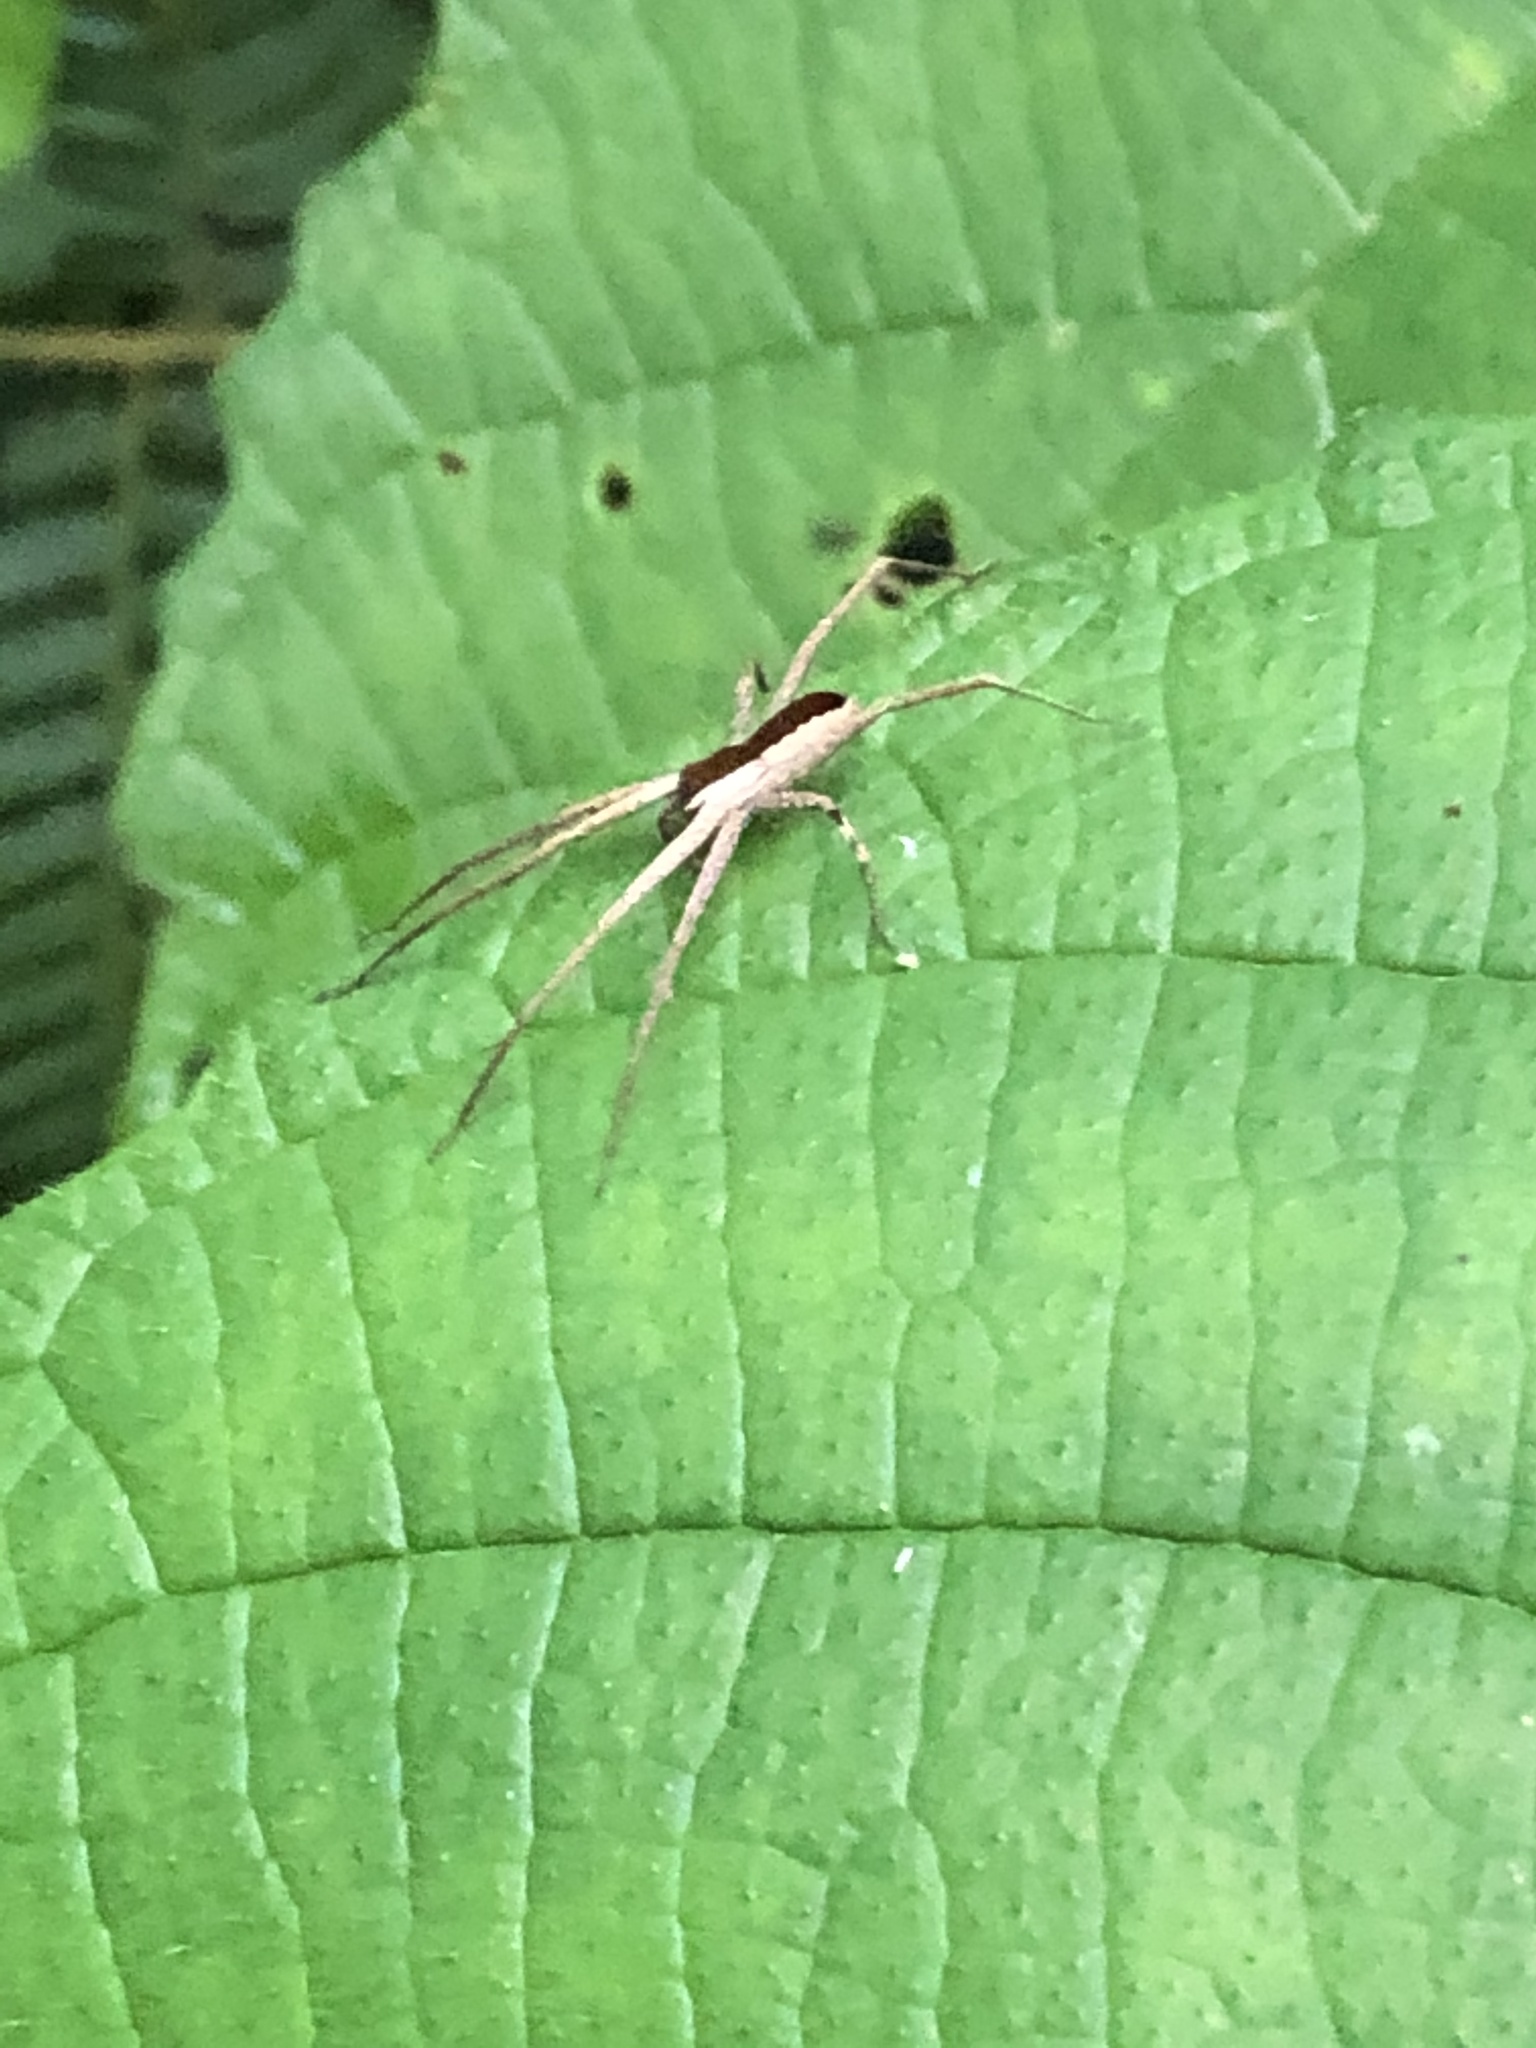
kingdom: Animalia
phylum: Arthropoda
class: Arachnida
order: Araneae
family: Trechaleidae
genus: Dossenus
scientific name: Dossenus marginatus
